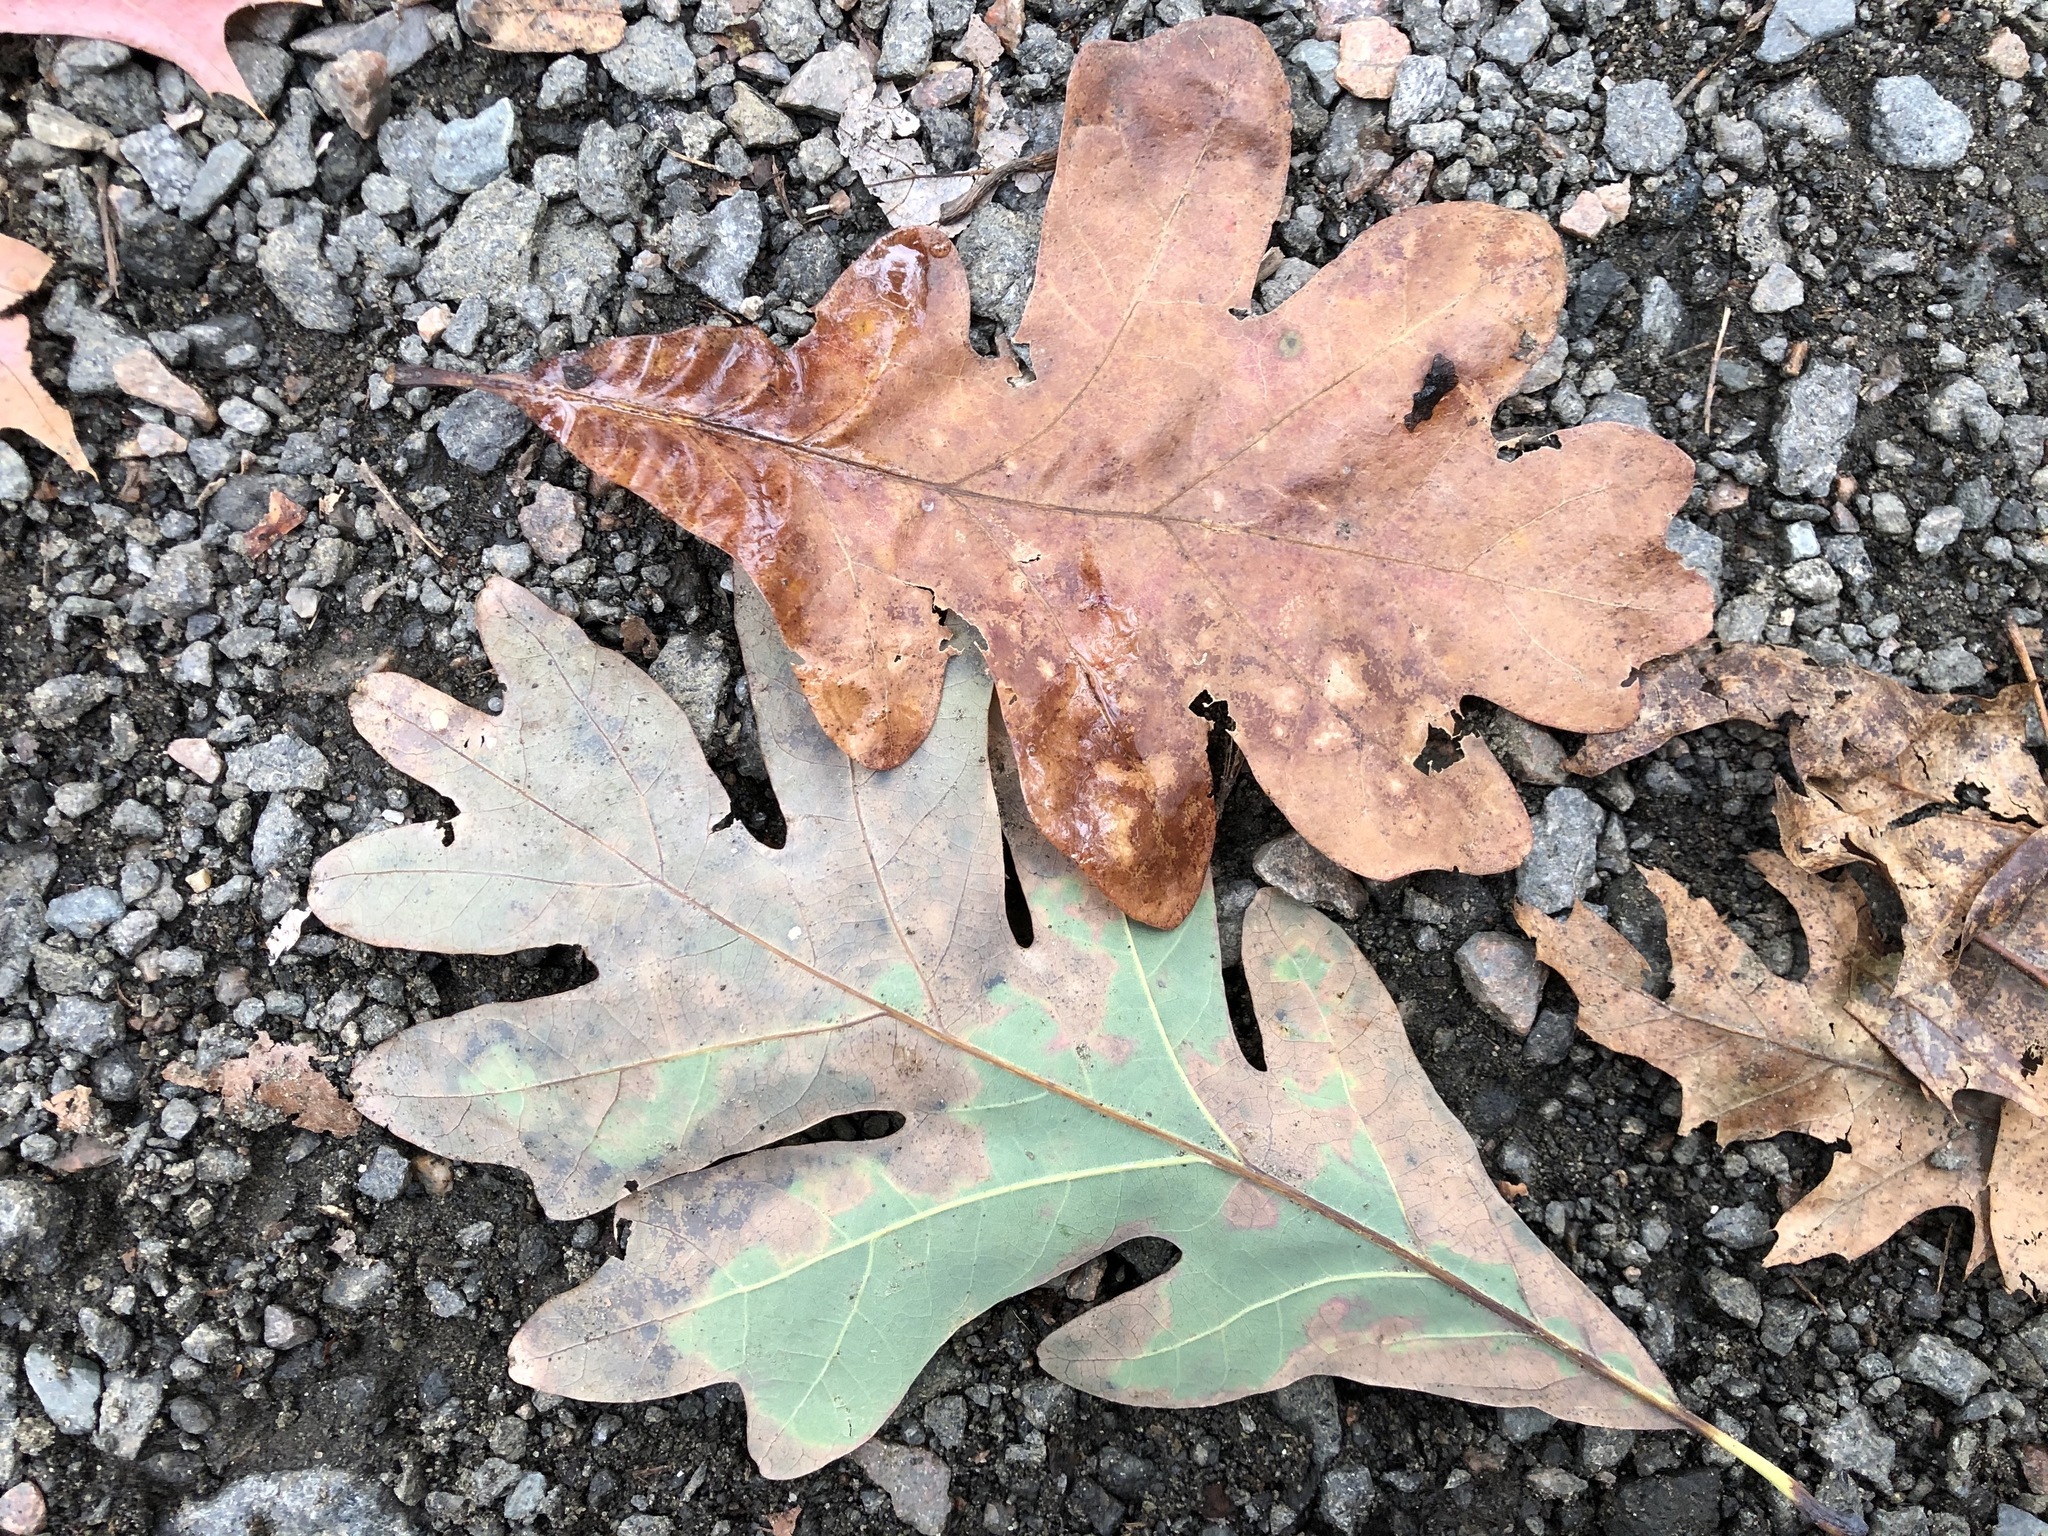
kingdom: Plantae
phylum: Tracheophyta
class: Magnoliopsida
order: Fagales
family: Fagaceae
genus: Quercus
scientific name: Quercus alba
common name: White oak
